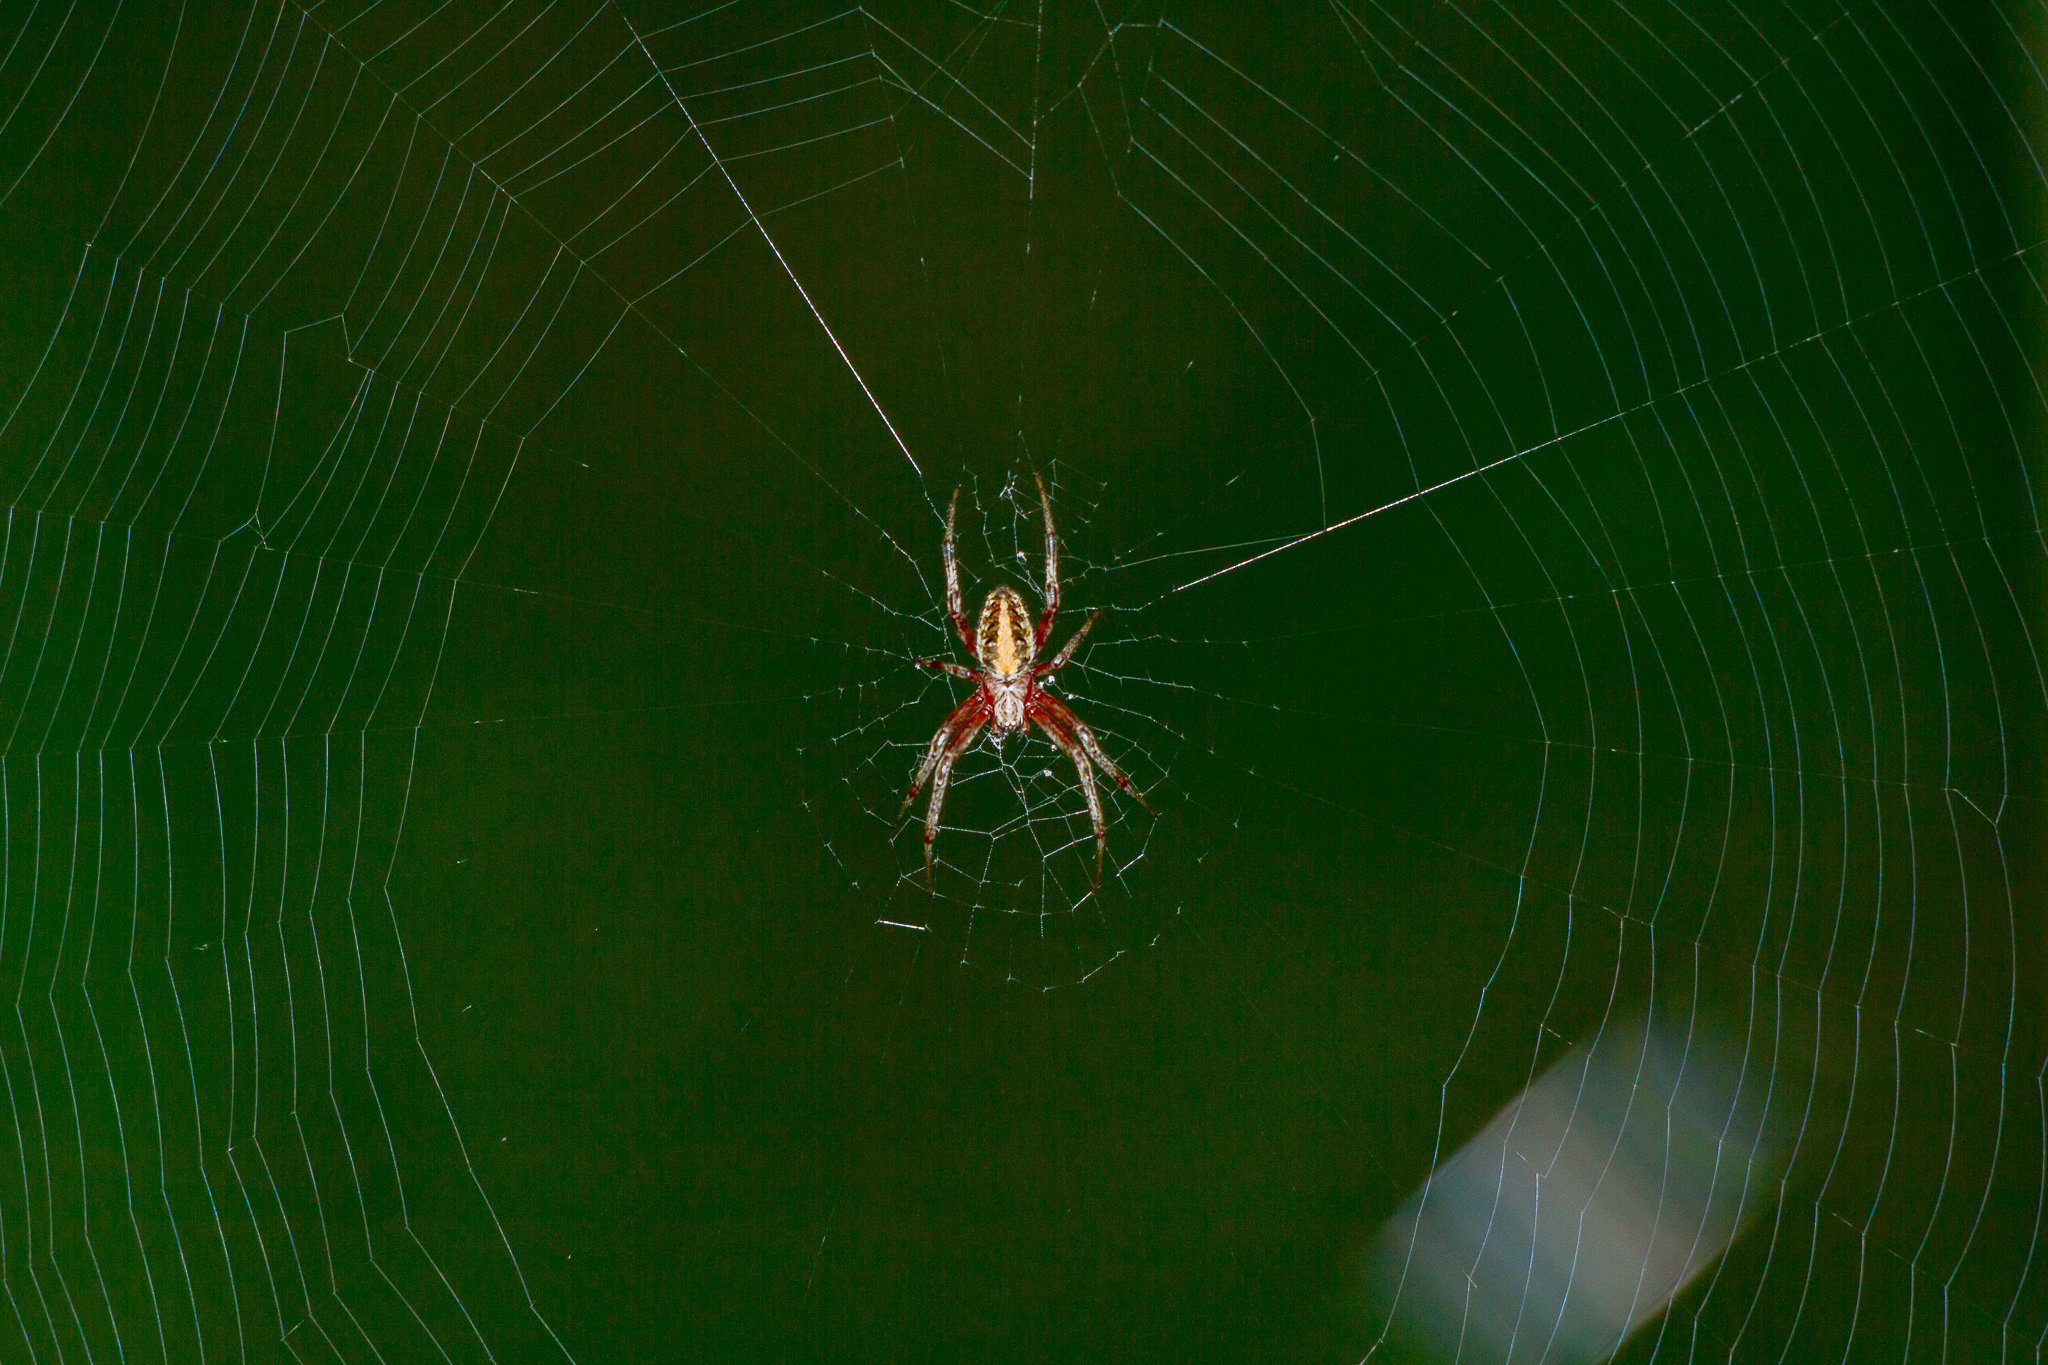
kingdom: Animalia
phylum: Arthropoda
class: Arachnida
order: Araneae
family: Araneidae
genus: Neoscona
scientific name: Neoscona arabesca
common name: Orb weavers
